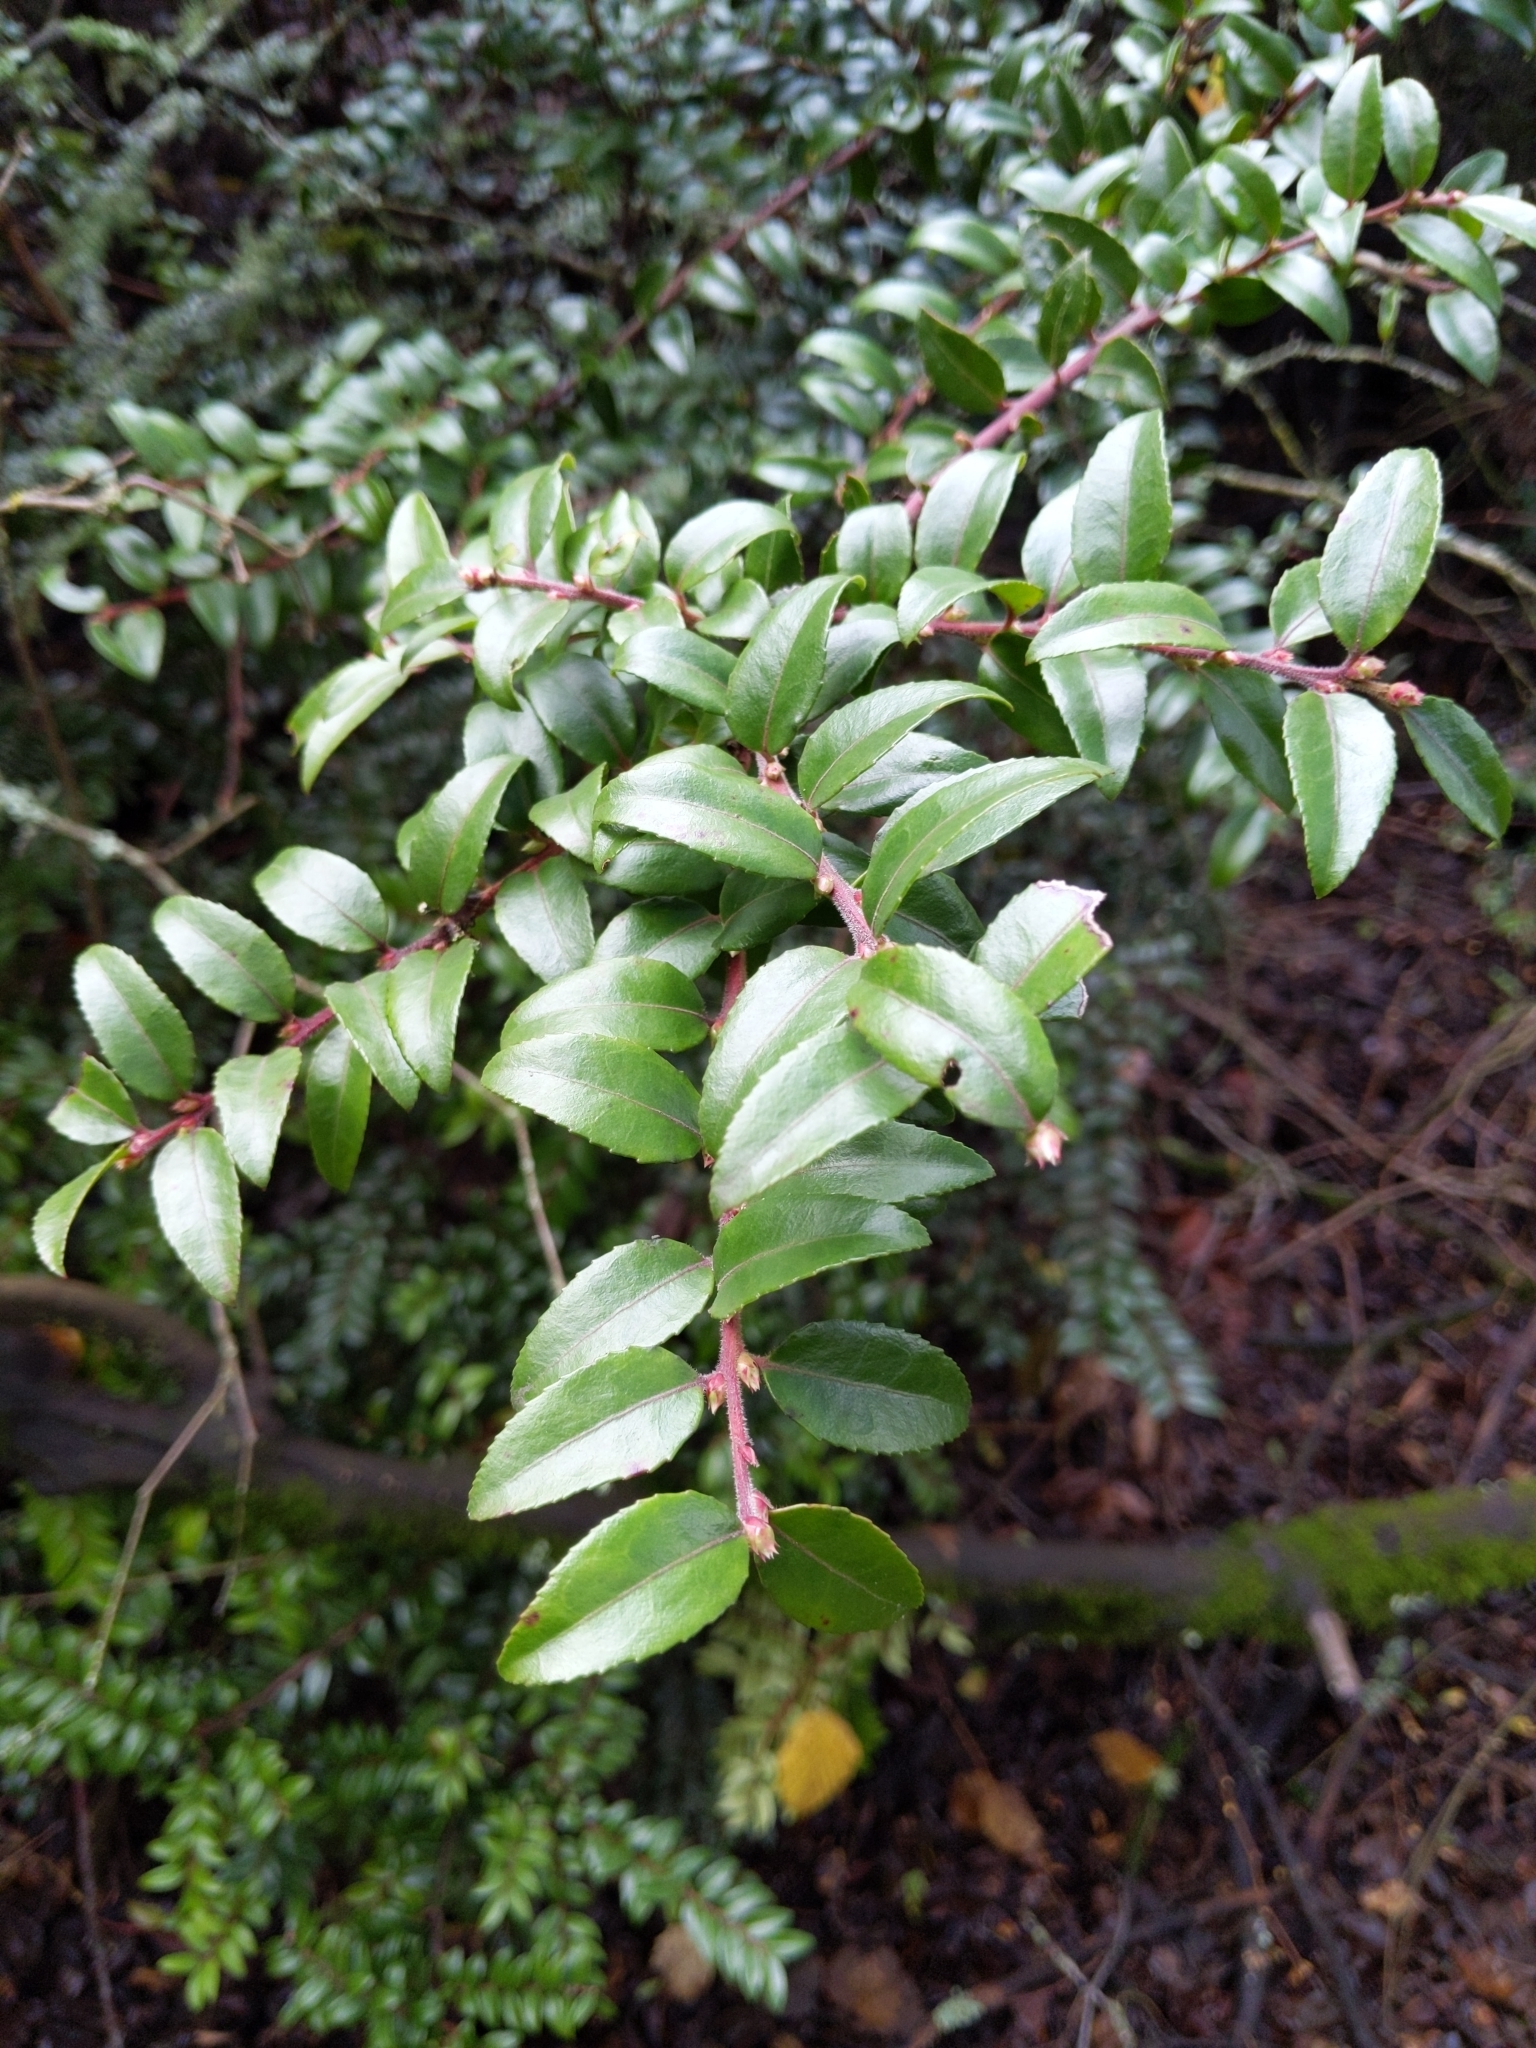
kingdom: Plantae
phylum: Tracheophyta
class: Magnoliopsida
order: Ericales
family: Ericaceae
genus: Vaccinium
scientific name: Vaccinium ovatum
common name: California-huckleberry
